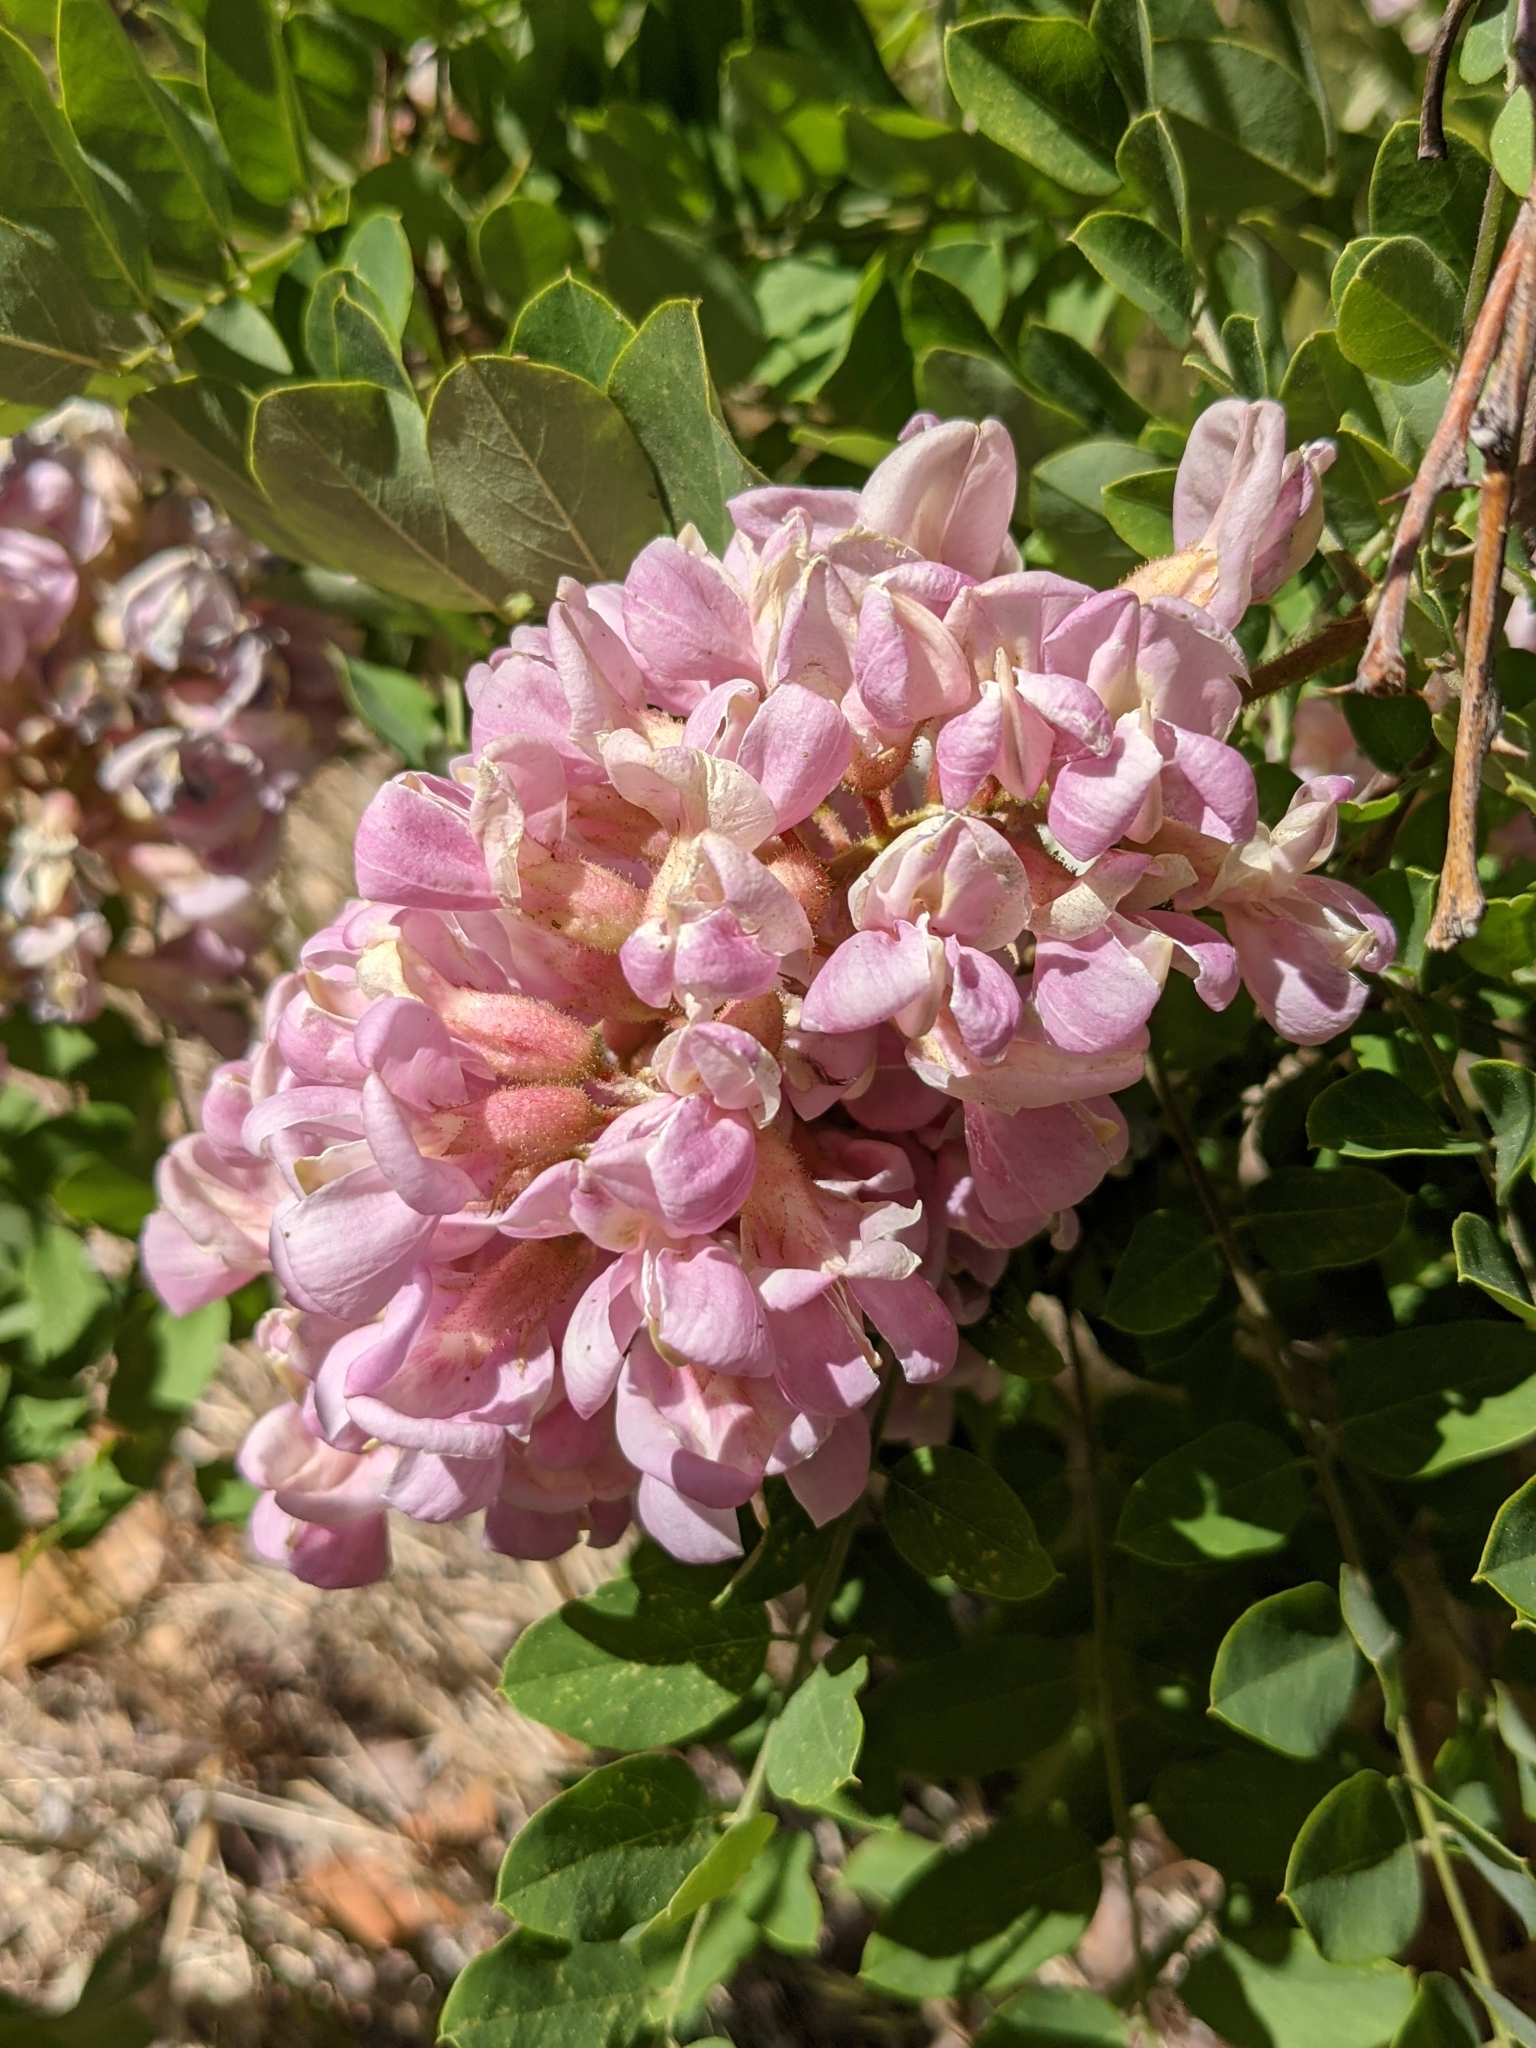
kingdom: Plantae
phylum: Tracheophyta
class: Magnoliopsida
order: Fabales
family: Fabaceae
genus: Robinia
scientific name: Robinia neomexicana
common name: New mexico locust
